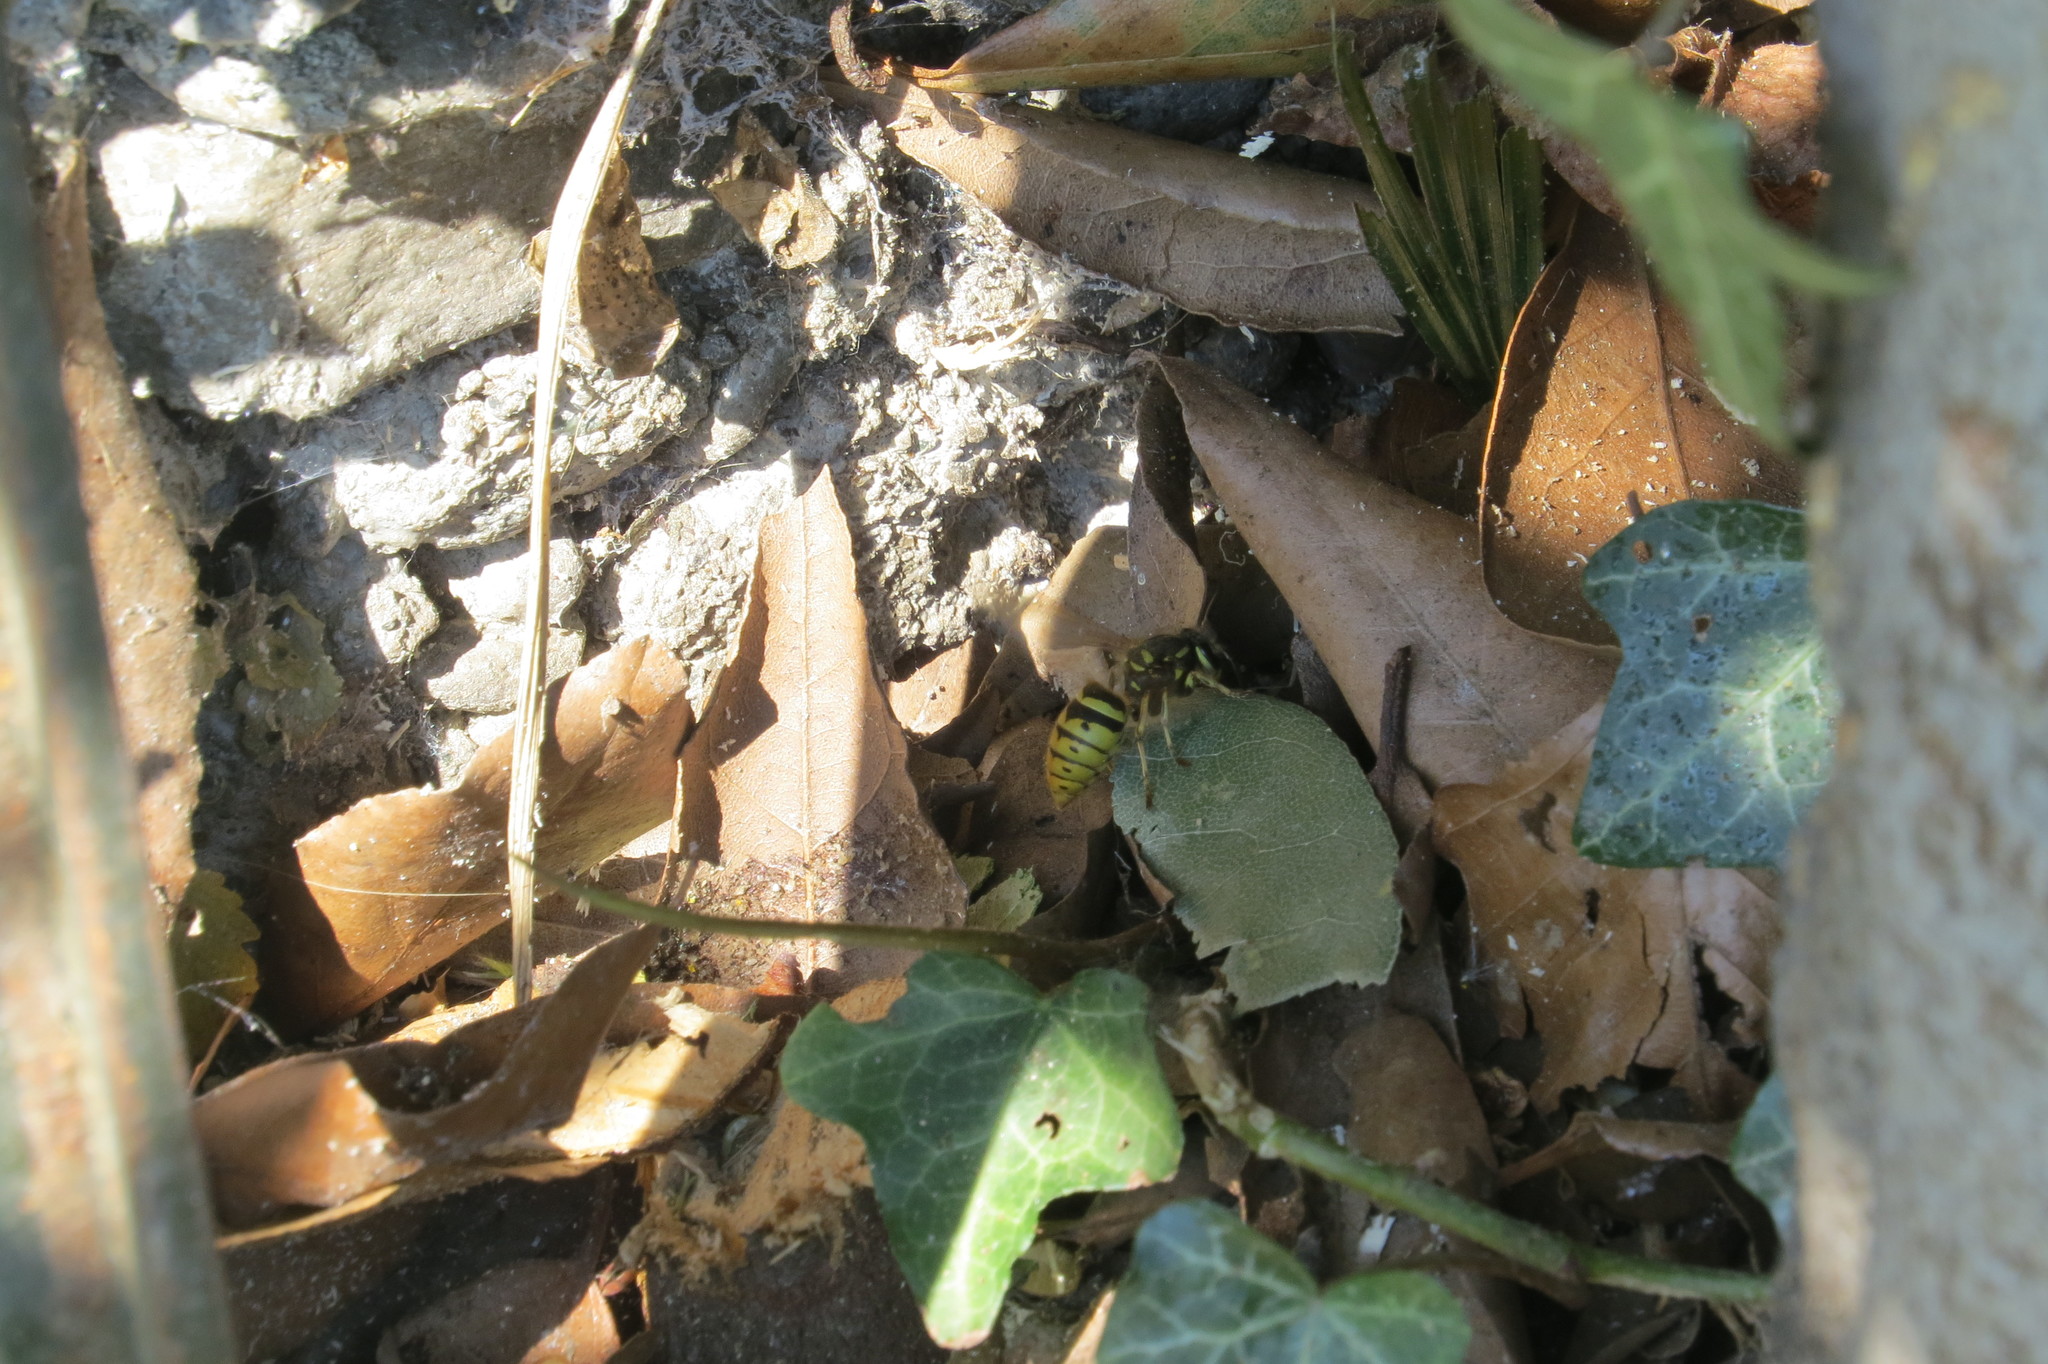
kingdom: Animalia
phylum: Arthropoda
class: Insecta
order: Hymenoptera
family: Vespidae
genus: Vespula
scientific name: Vespula vulgaris
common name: Common wasp
